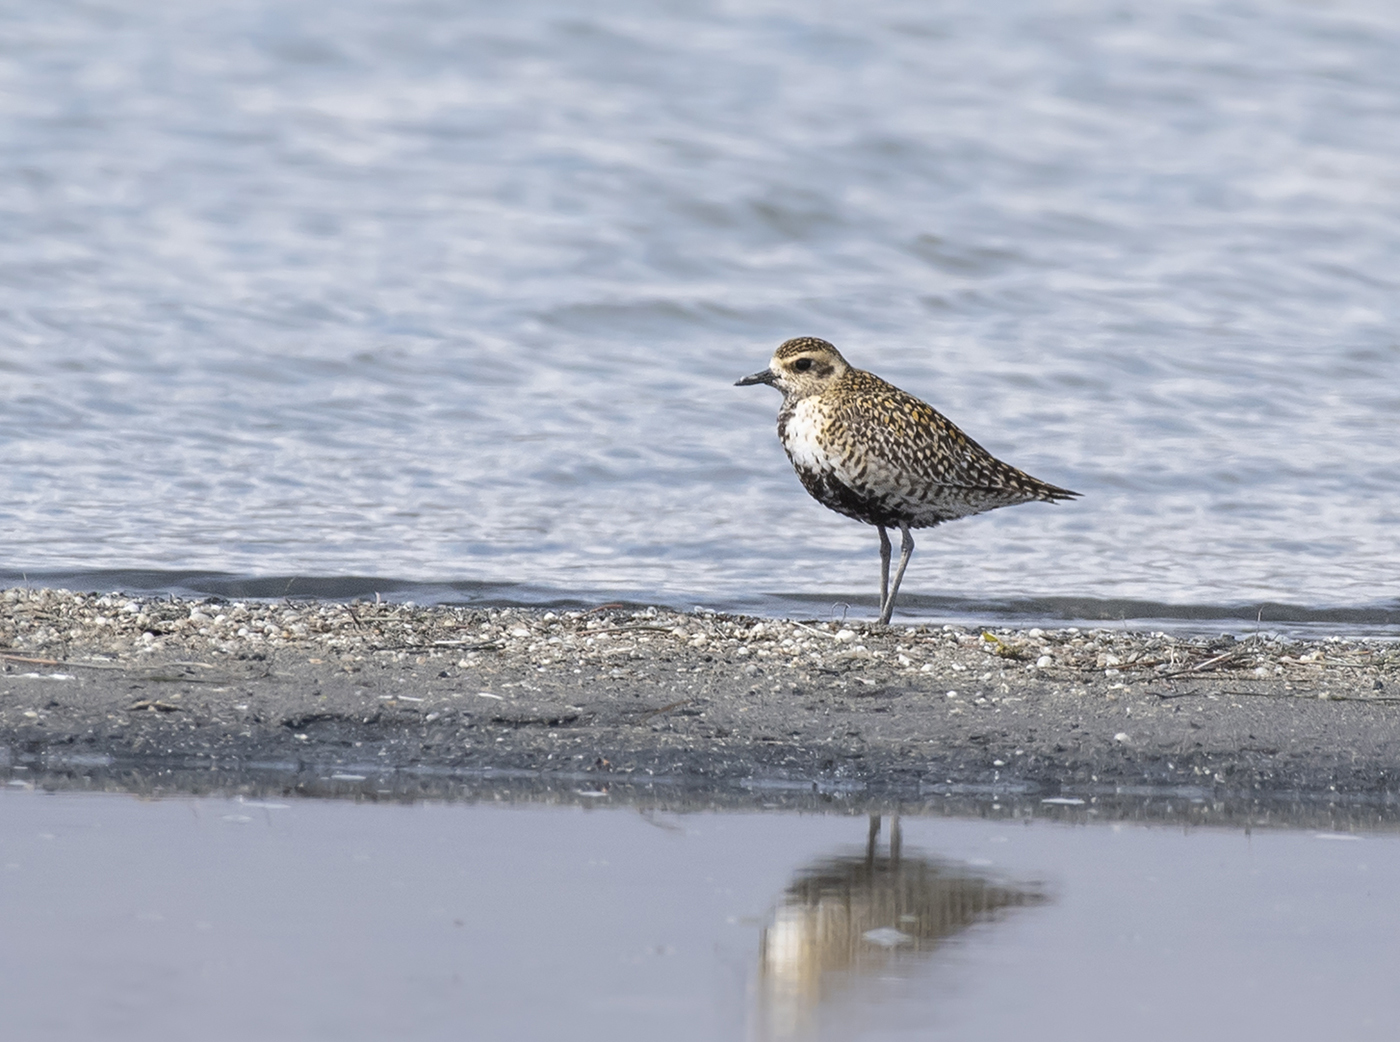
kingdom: Animalia
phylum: Chordata
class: Aves
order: Charadriiformes
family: Charadriidae
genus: Pluvialis
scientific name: Pluvialis fulva
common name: Pacific golden plover
